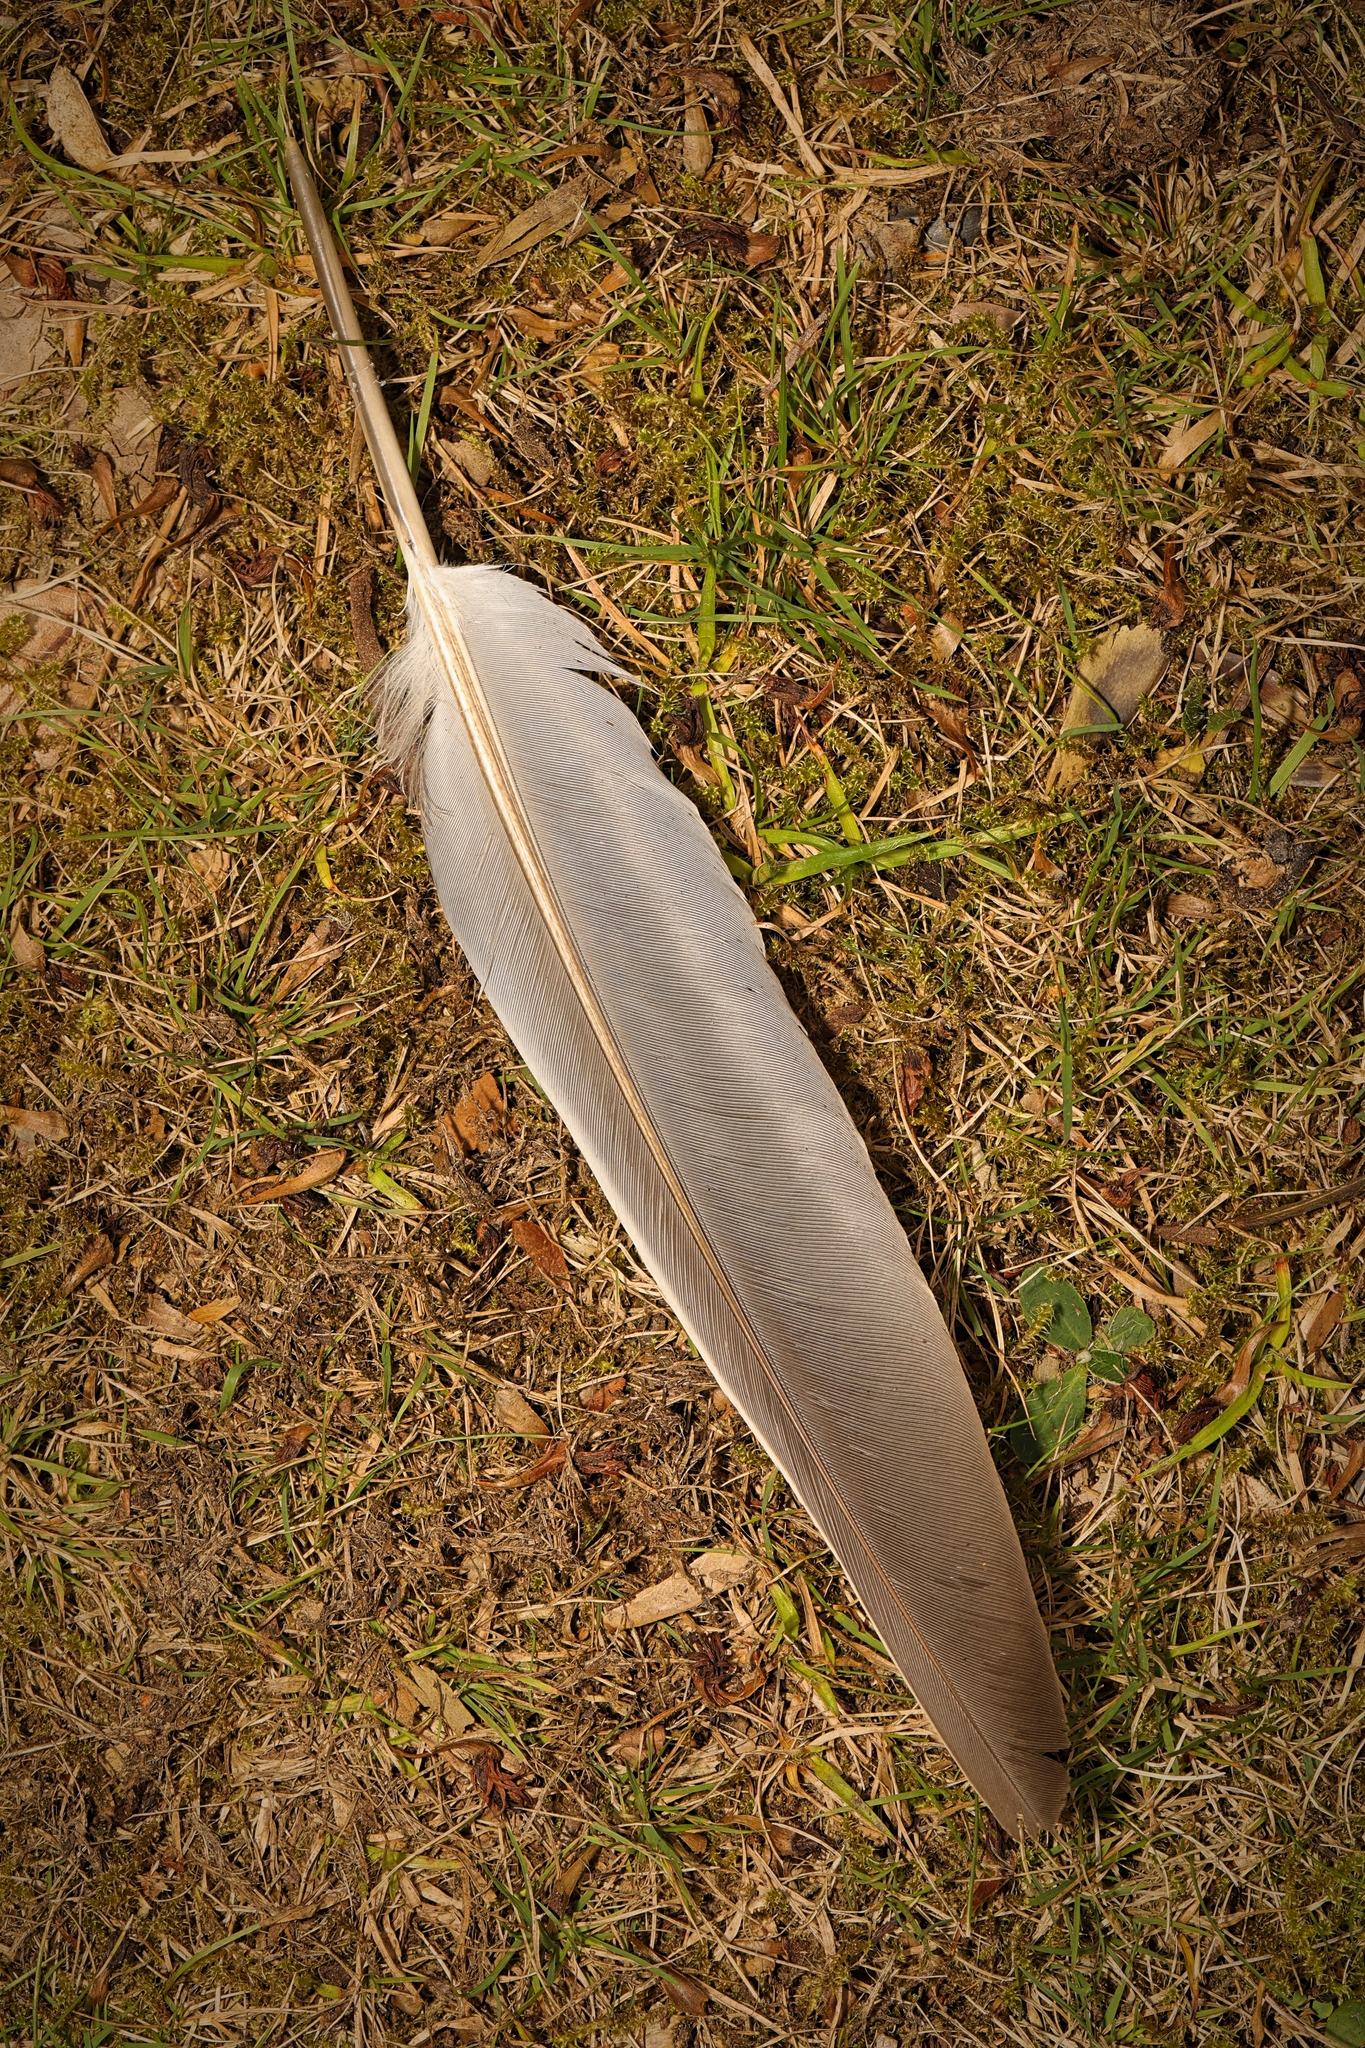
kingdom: Animalia
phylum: Chordata
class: Aves
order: Columbiformes
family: Columbidae
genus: Columba
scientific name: Columba palumbus
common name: Common wood pigeon
